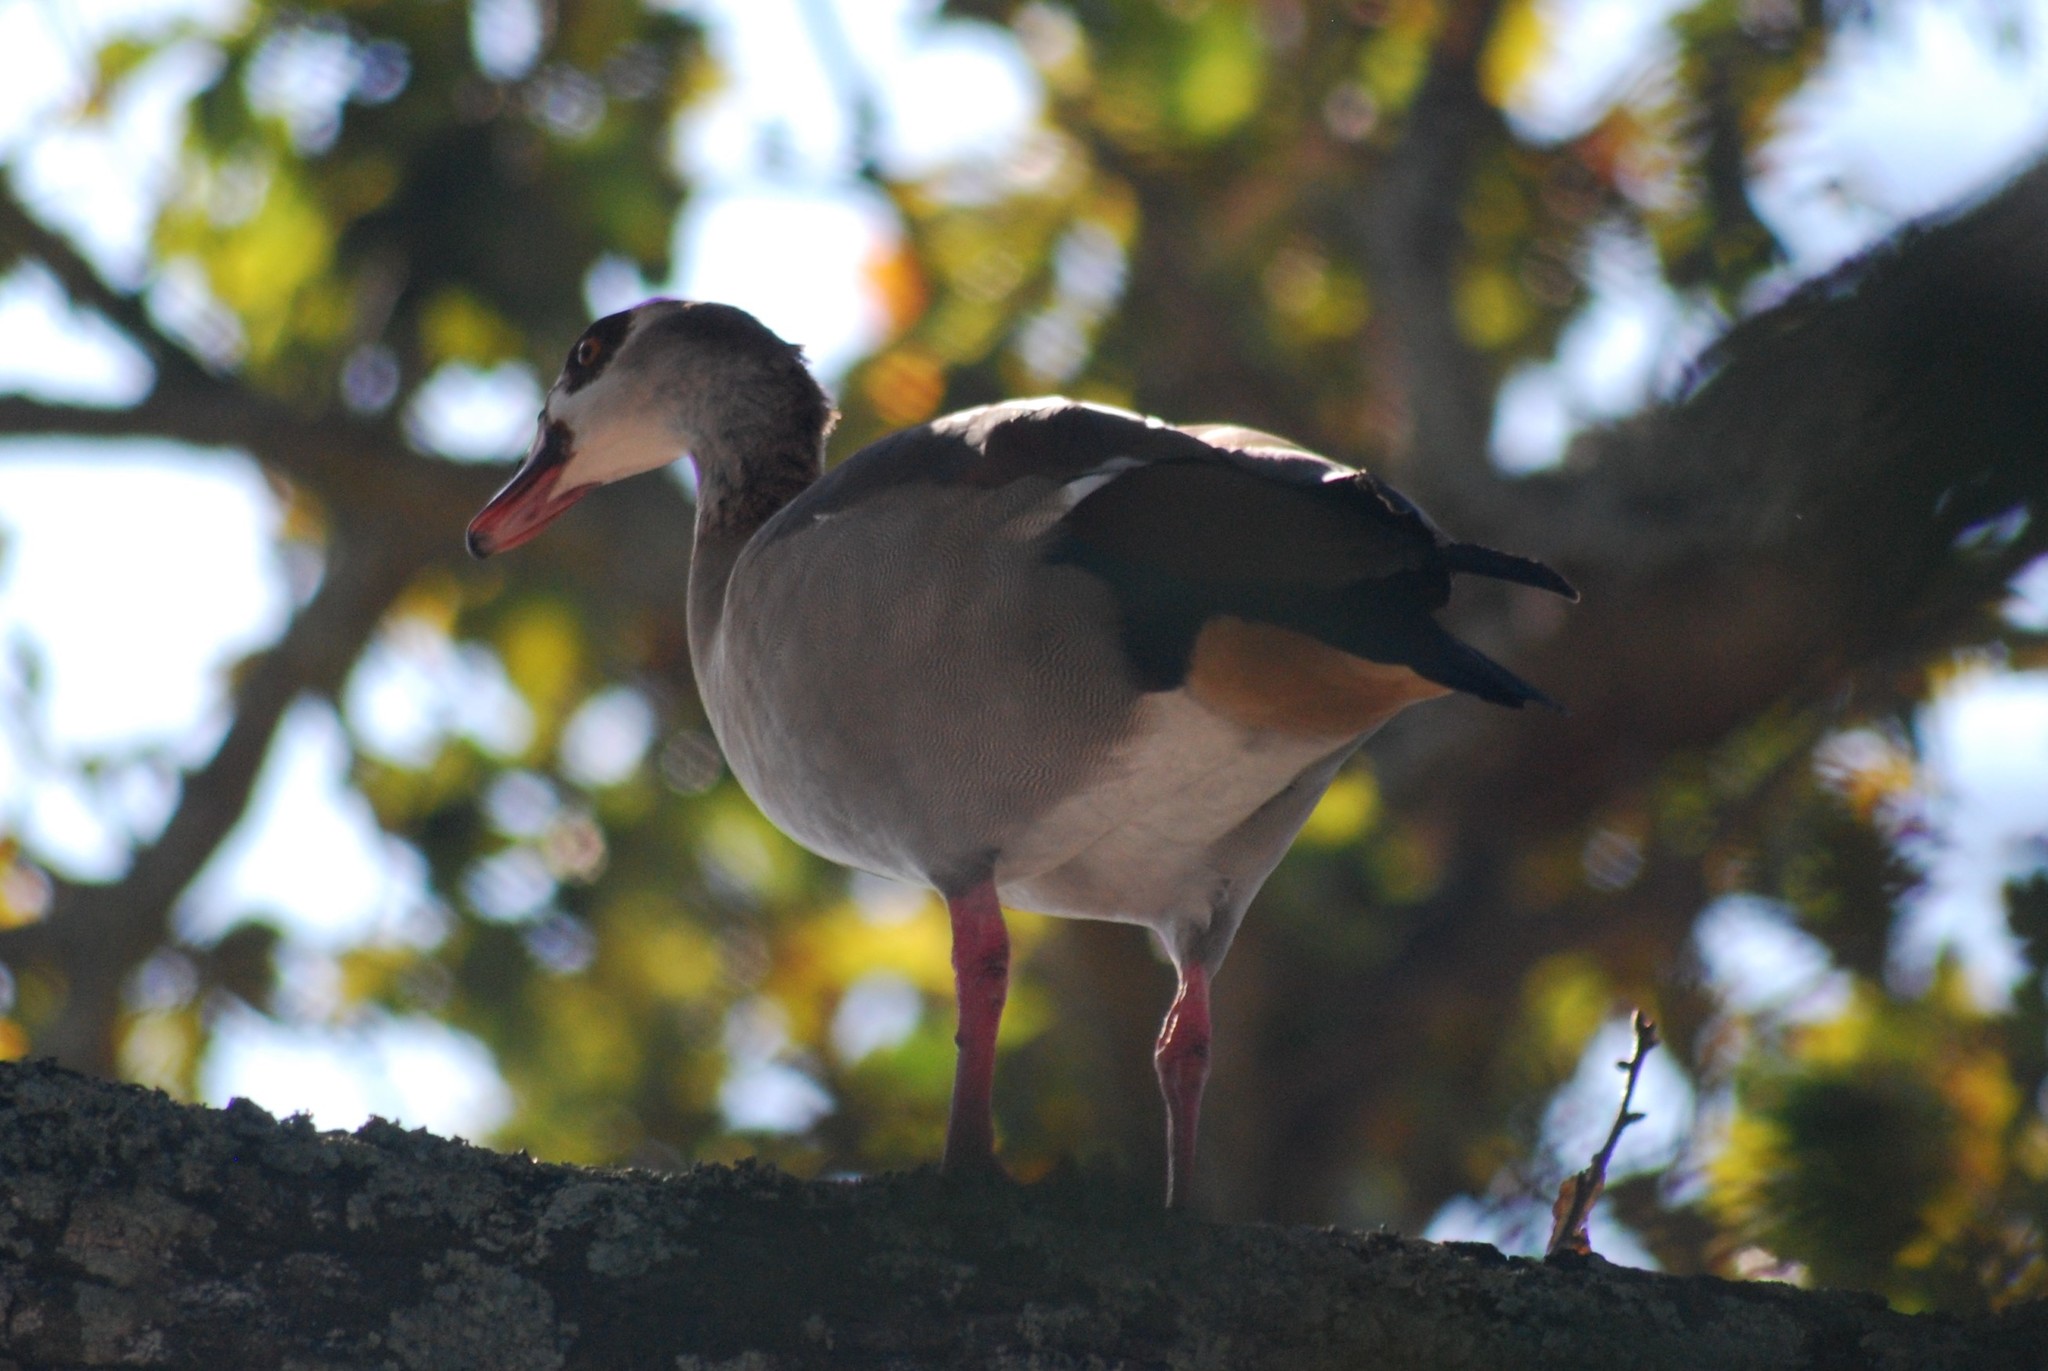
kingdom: Animalia
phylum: Chordata
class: Aves
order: Anseriformes
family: Anatidae
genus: Alopochen
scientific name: Alopochen aegyptiaca
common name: Egyptian goose
